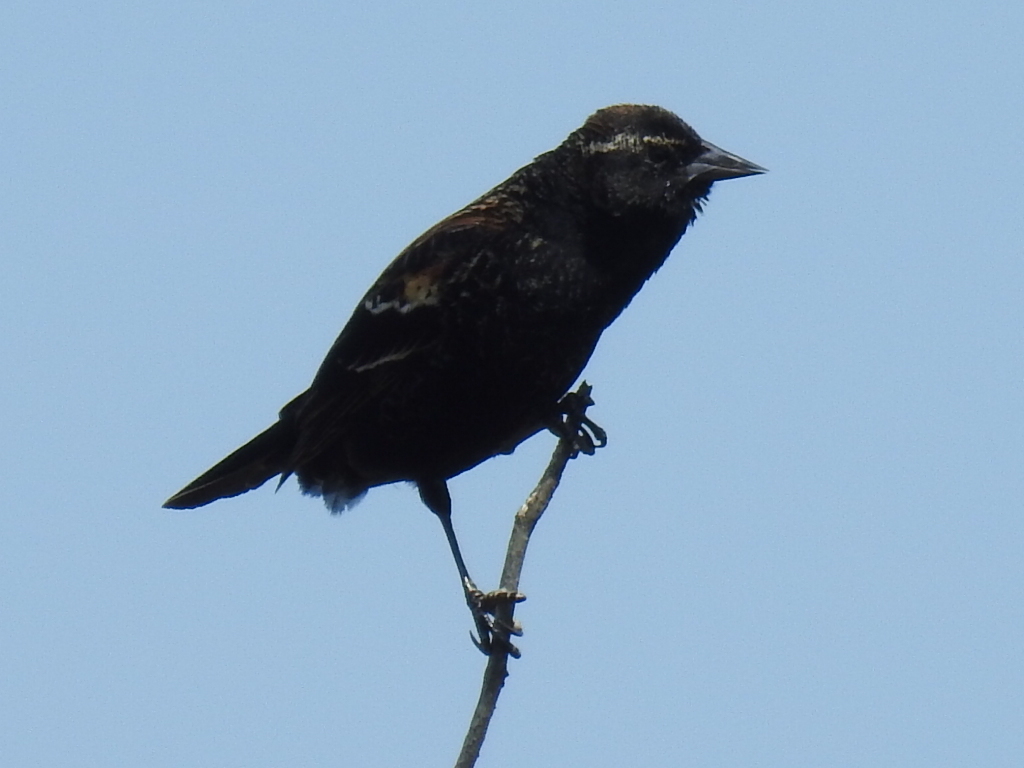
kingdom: Animalia
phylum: Chordata
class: Aves
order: Passeriformes
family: Icteridae
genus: Agelaius
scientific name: Agelaius phoeniceus
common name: Red-winged blackbird
